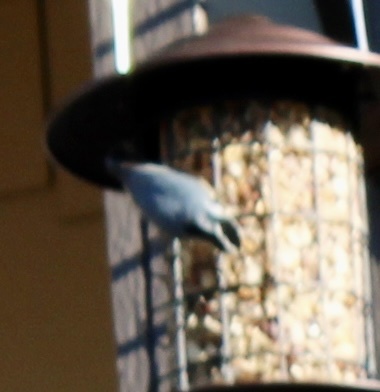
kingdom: Animalia
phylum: Chordata
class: Aves
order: Passeriformes
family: Sittidae
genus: Sitta
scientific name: Sitta canadensis
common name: Red-breasted nuthatch
